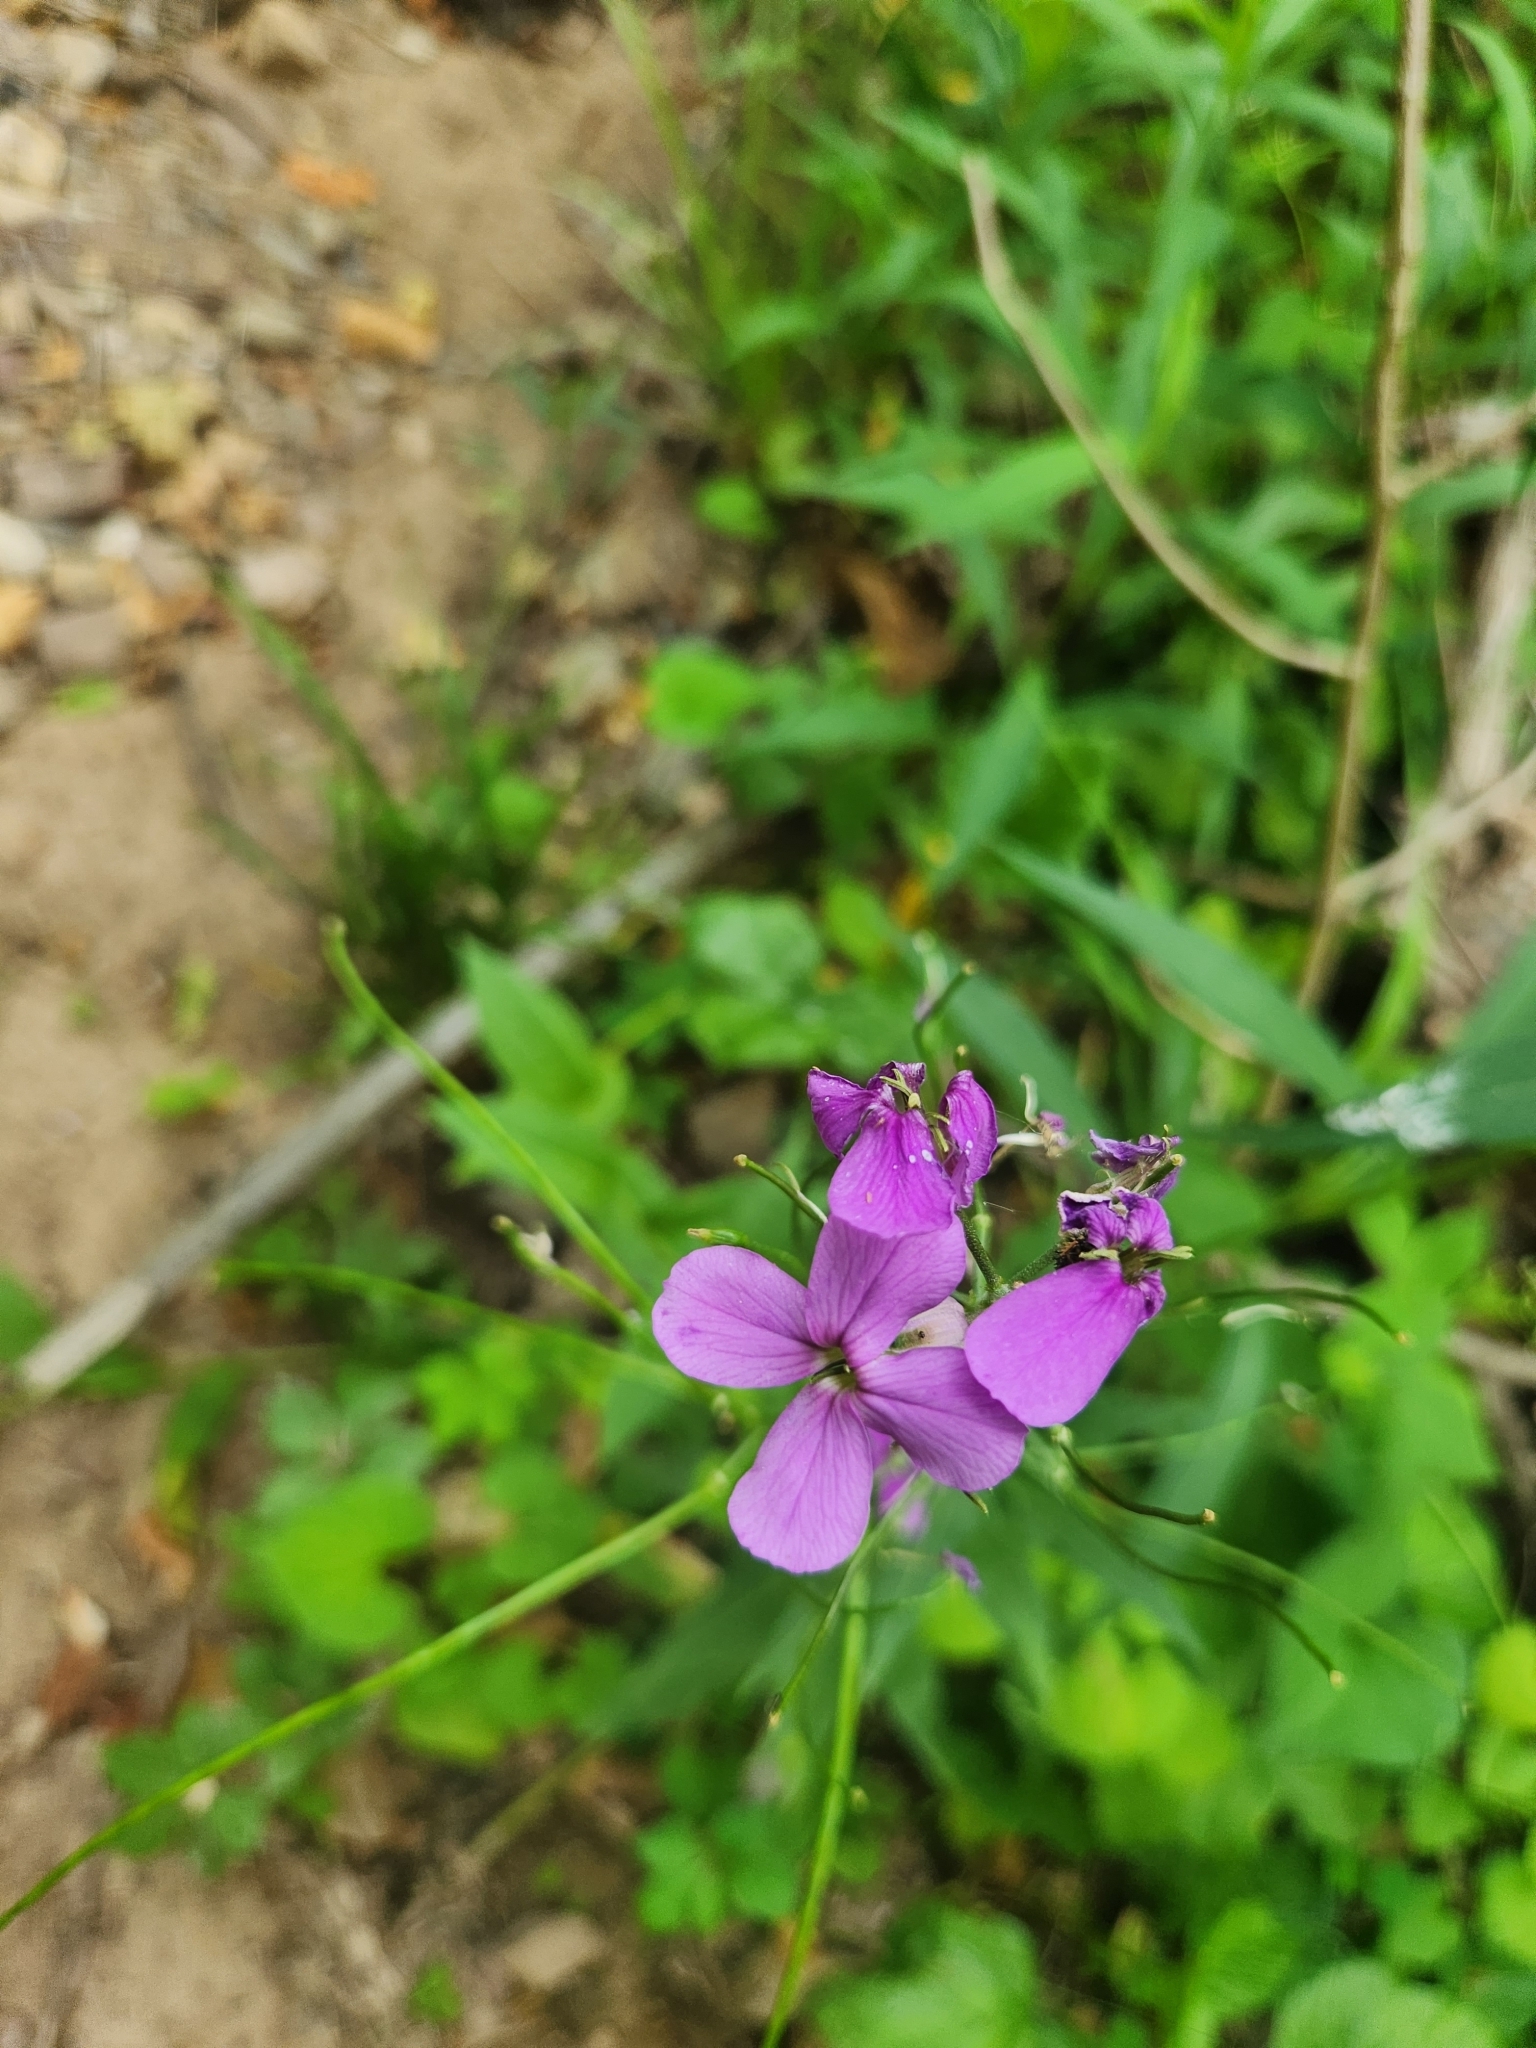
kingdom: Plantae
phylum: Tracheophyta
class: Magnoliopsida
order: Brassicales
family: Brassicaceae
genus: Hesperis
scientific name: Hesperis matronalis
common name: Dame's-violet
